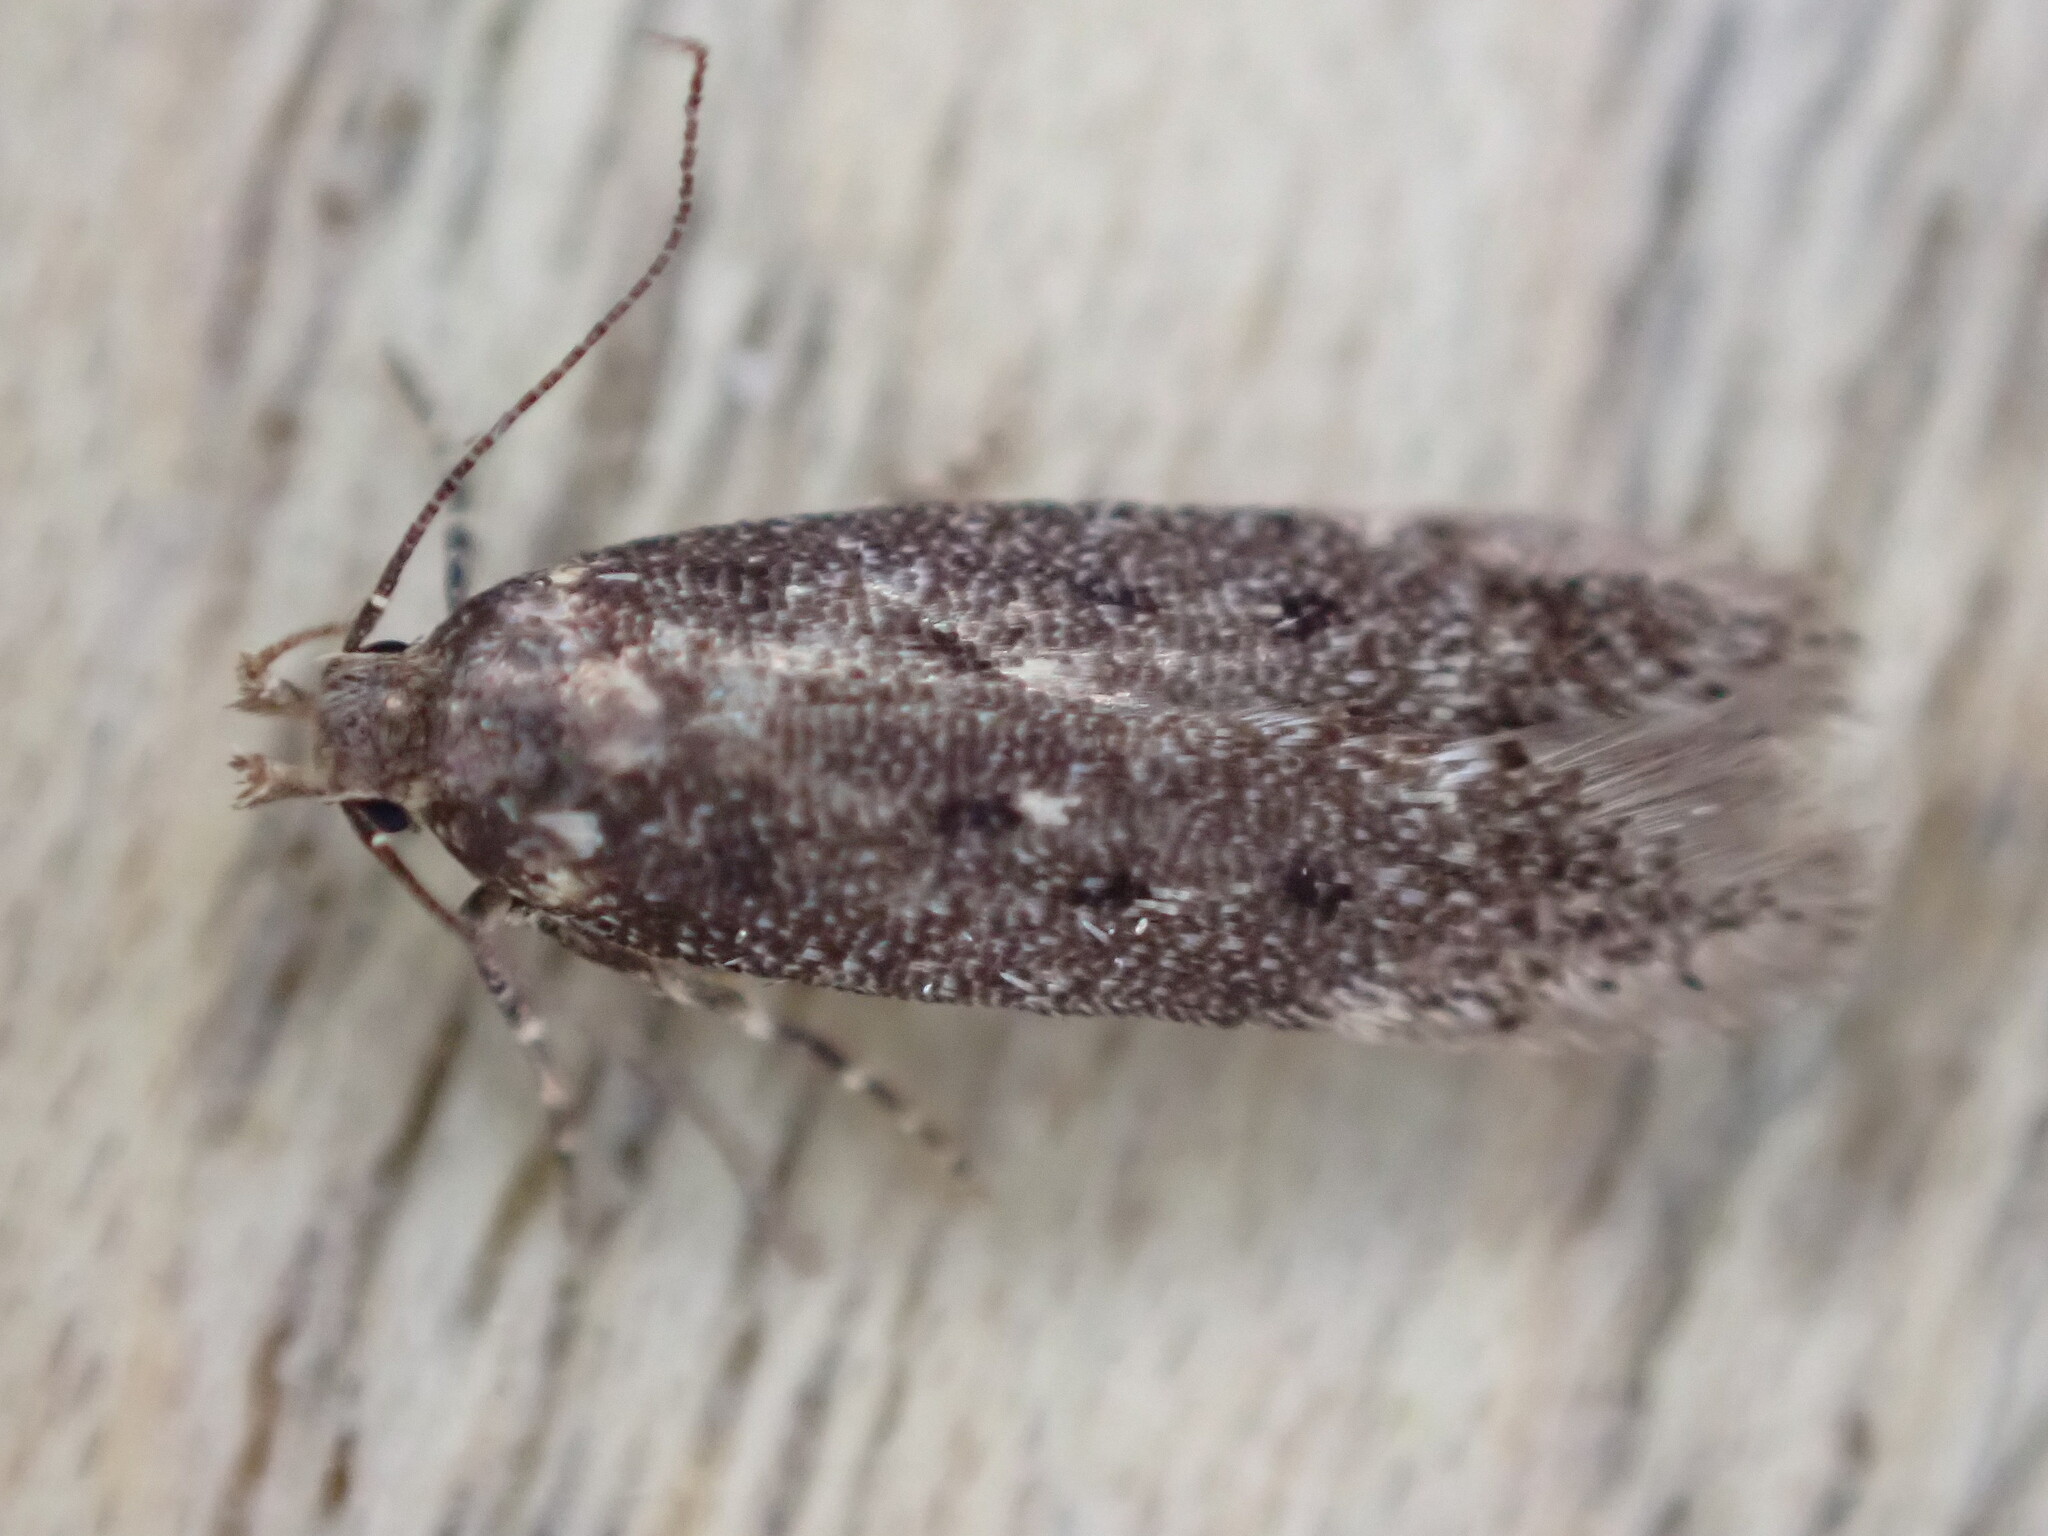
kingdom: Animalia
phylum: Arthropoda
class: Insecta
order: Lepidoptera
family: Gelechiidae
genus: Bryotropha
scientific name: Bryotropha affinis
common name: Dark groundling
